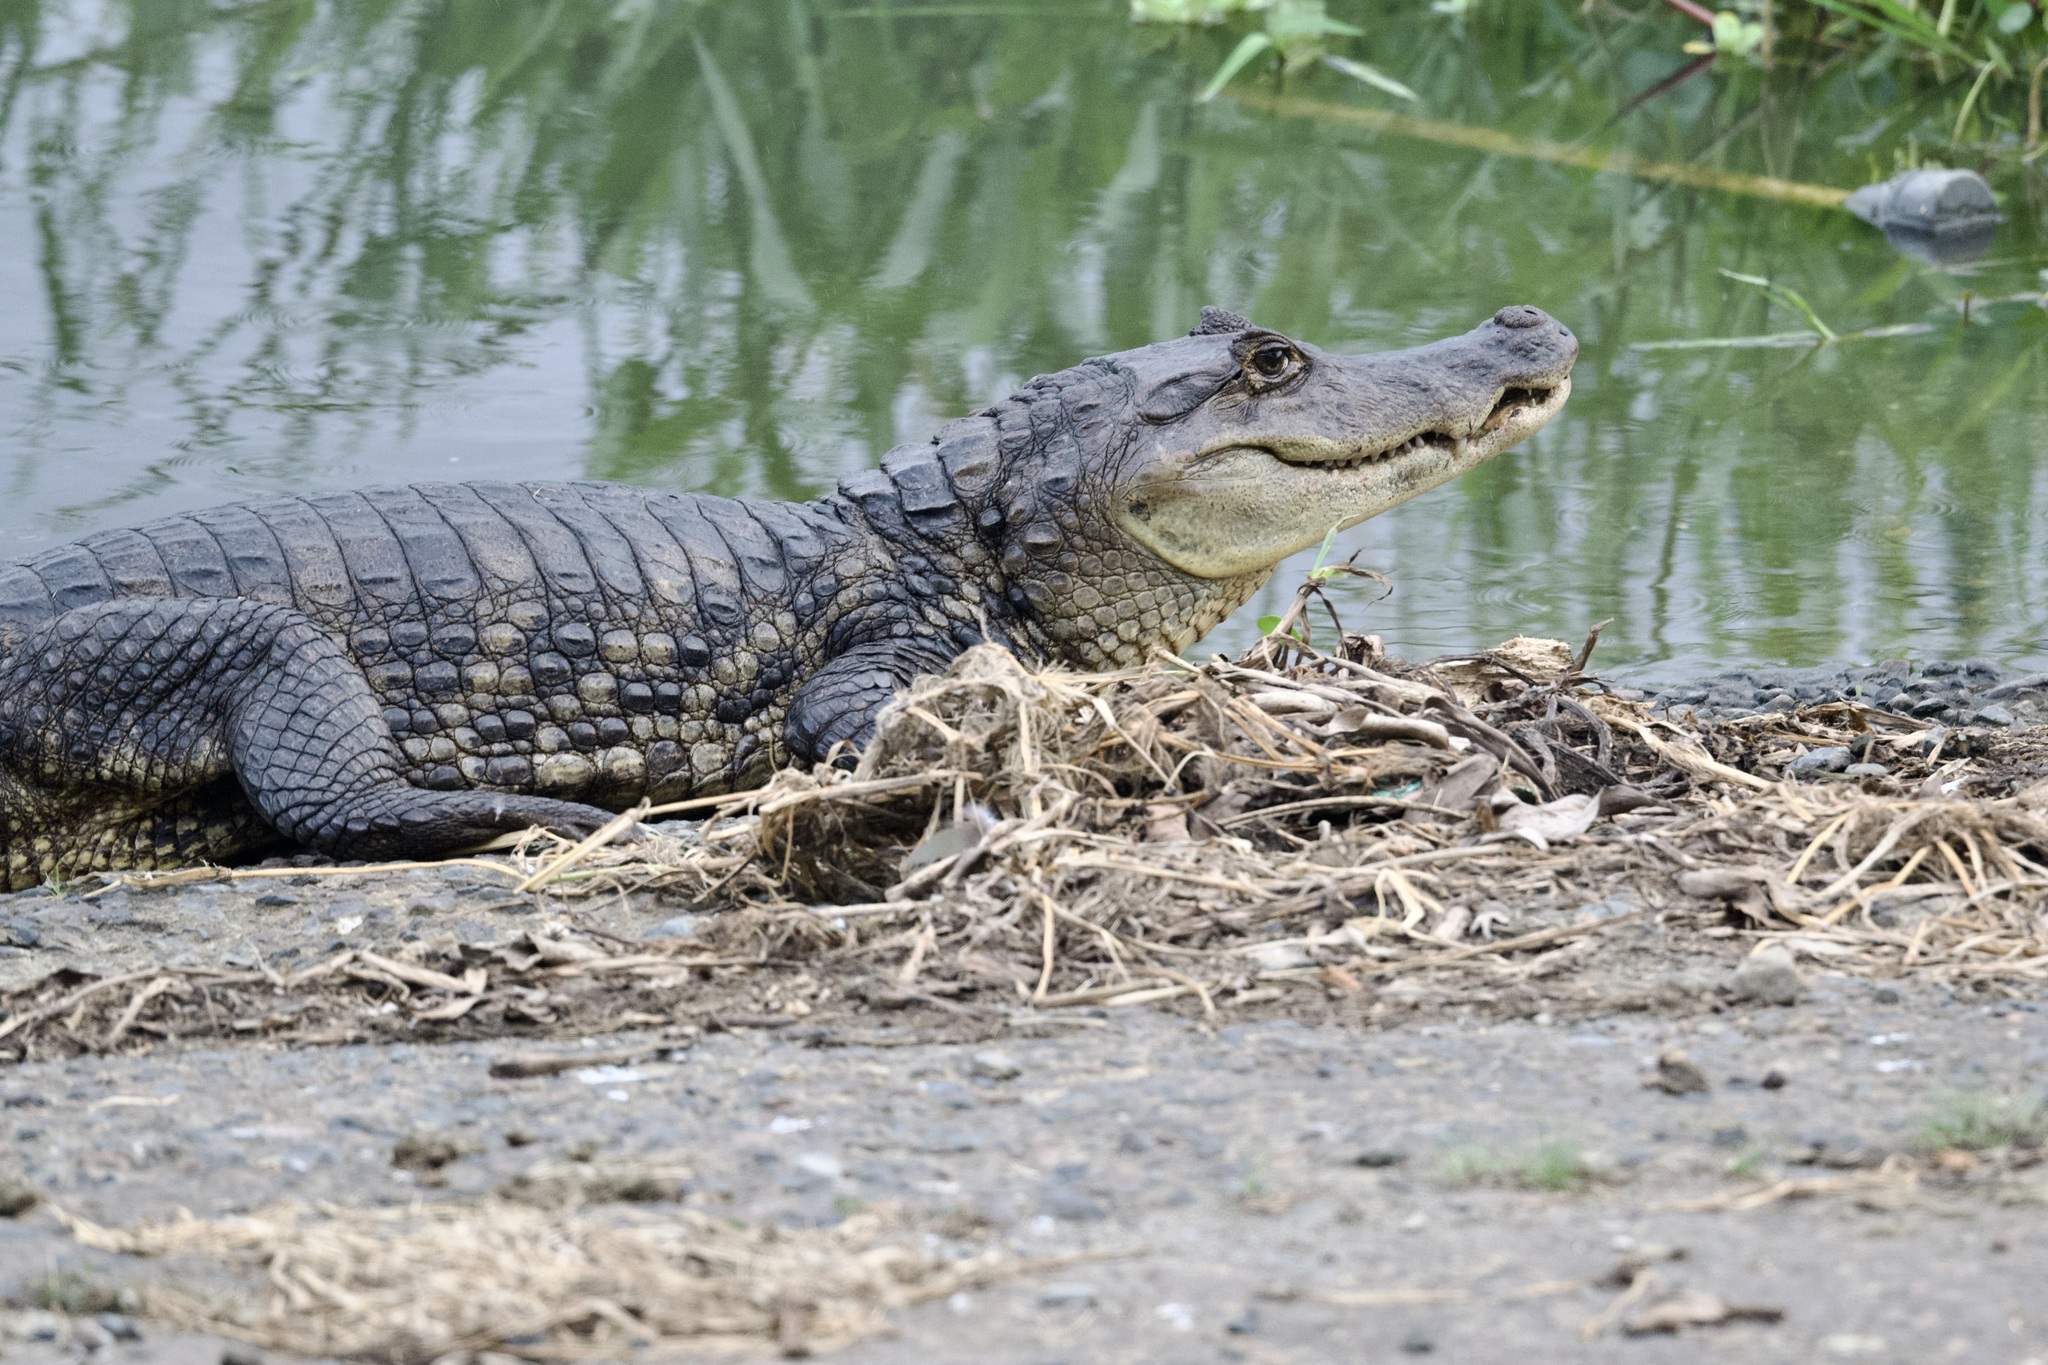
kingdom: Animalia
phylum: Chordata
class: Crocodylia
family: Alligatoridae
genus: Caiman
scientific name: Caiman crocodilus
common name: Common caiman
